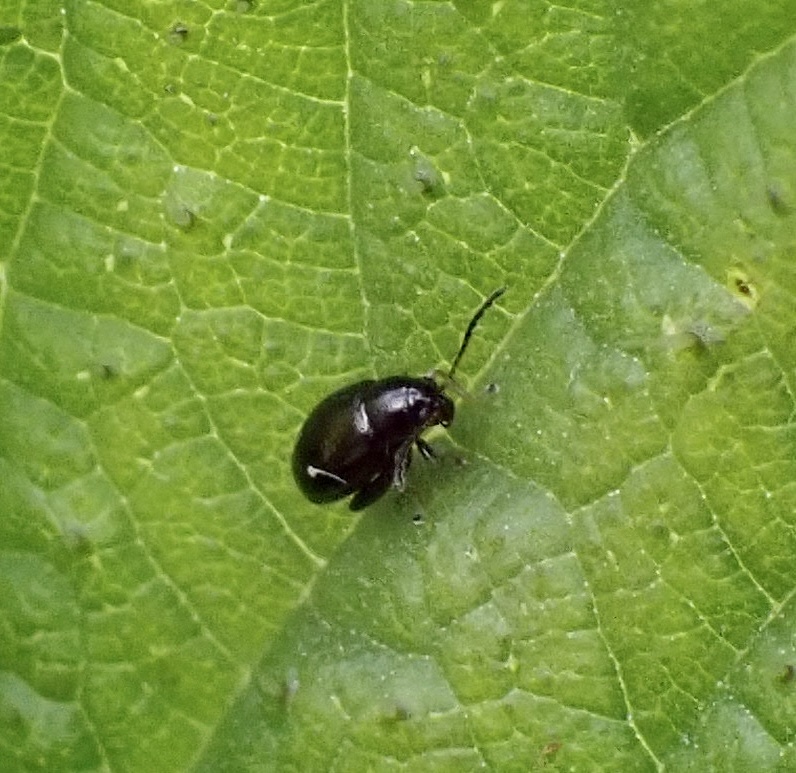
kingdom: Animalia
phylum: Arthropoda
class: Insecta
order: Coleoptera
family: Chrysomelidae
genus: Longitarsus
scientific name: Longitarsus anchusae
